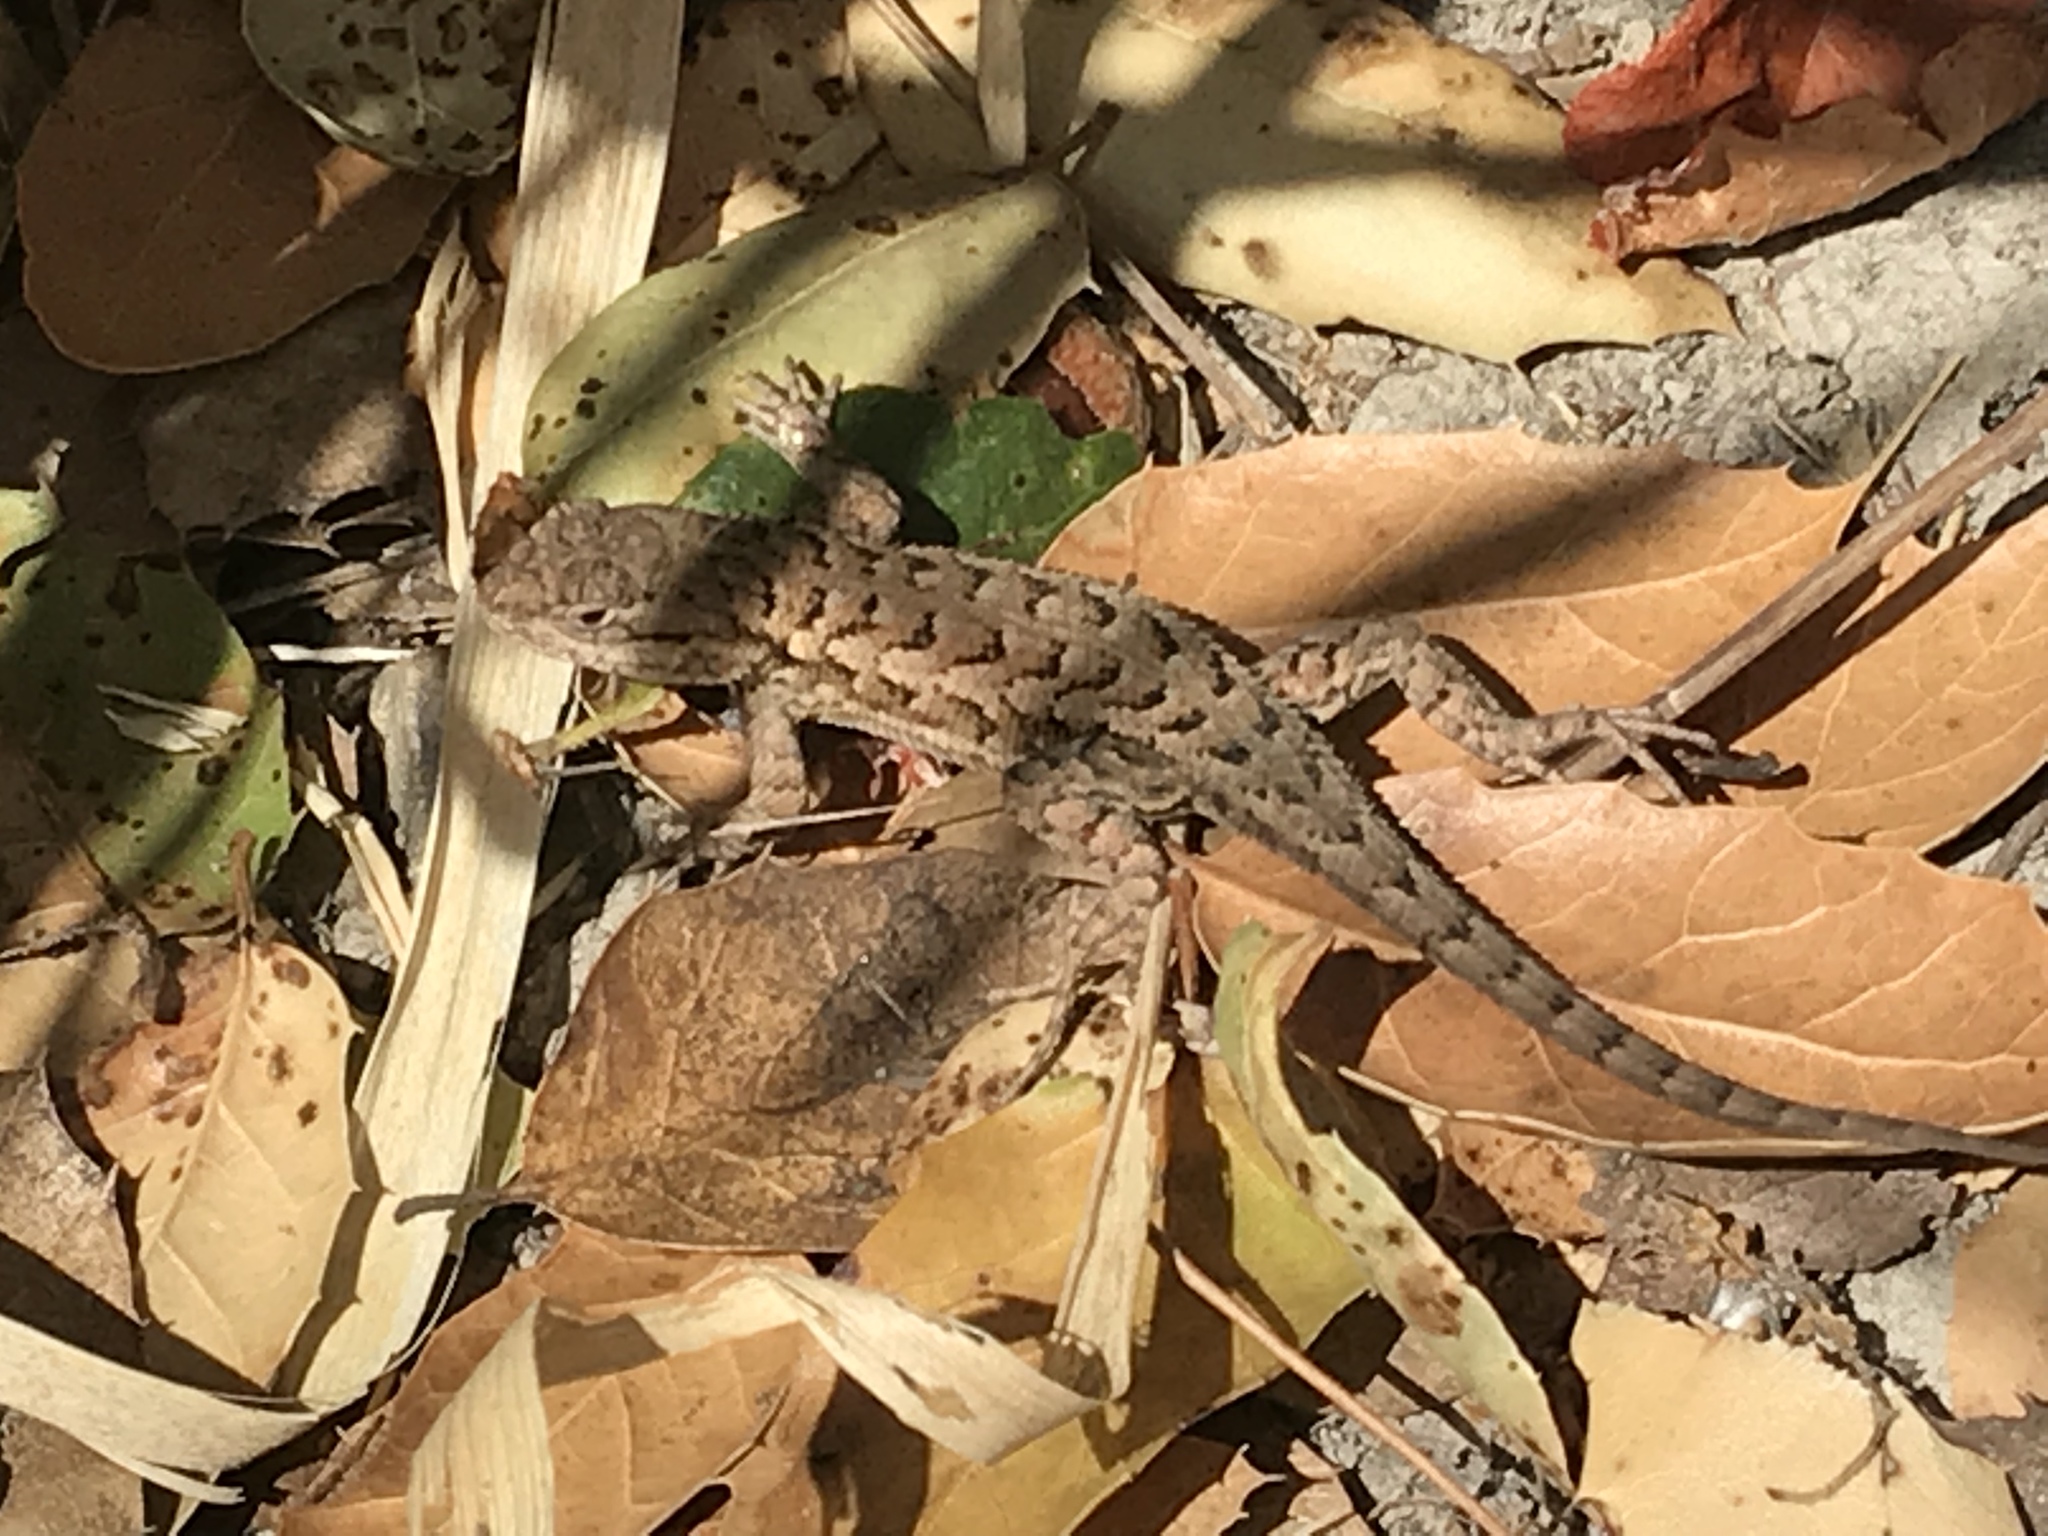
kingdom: Animalia
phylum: Chordata
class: Squamata
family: Phrynosomatidae
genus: Sceloporus
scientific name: Sceloporus occidentalis
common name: Western fence lizard
